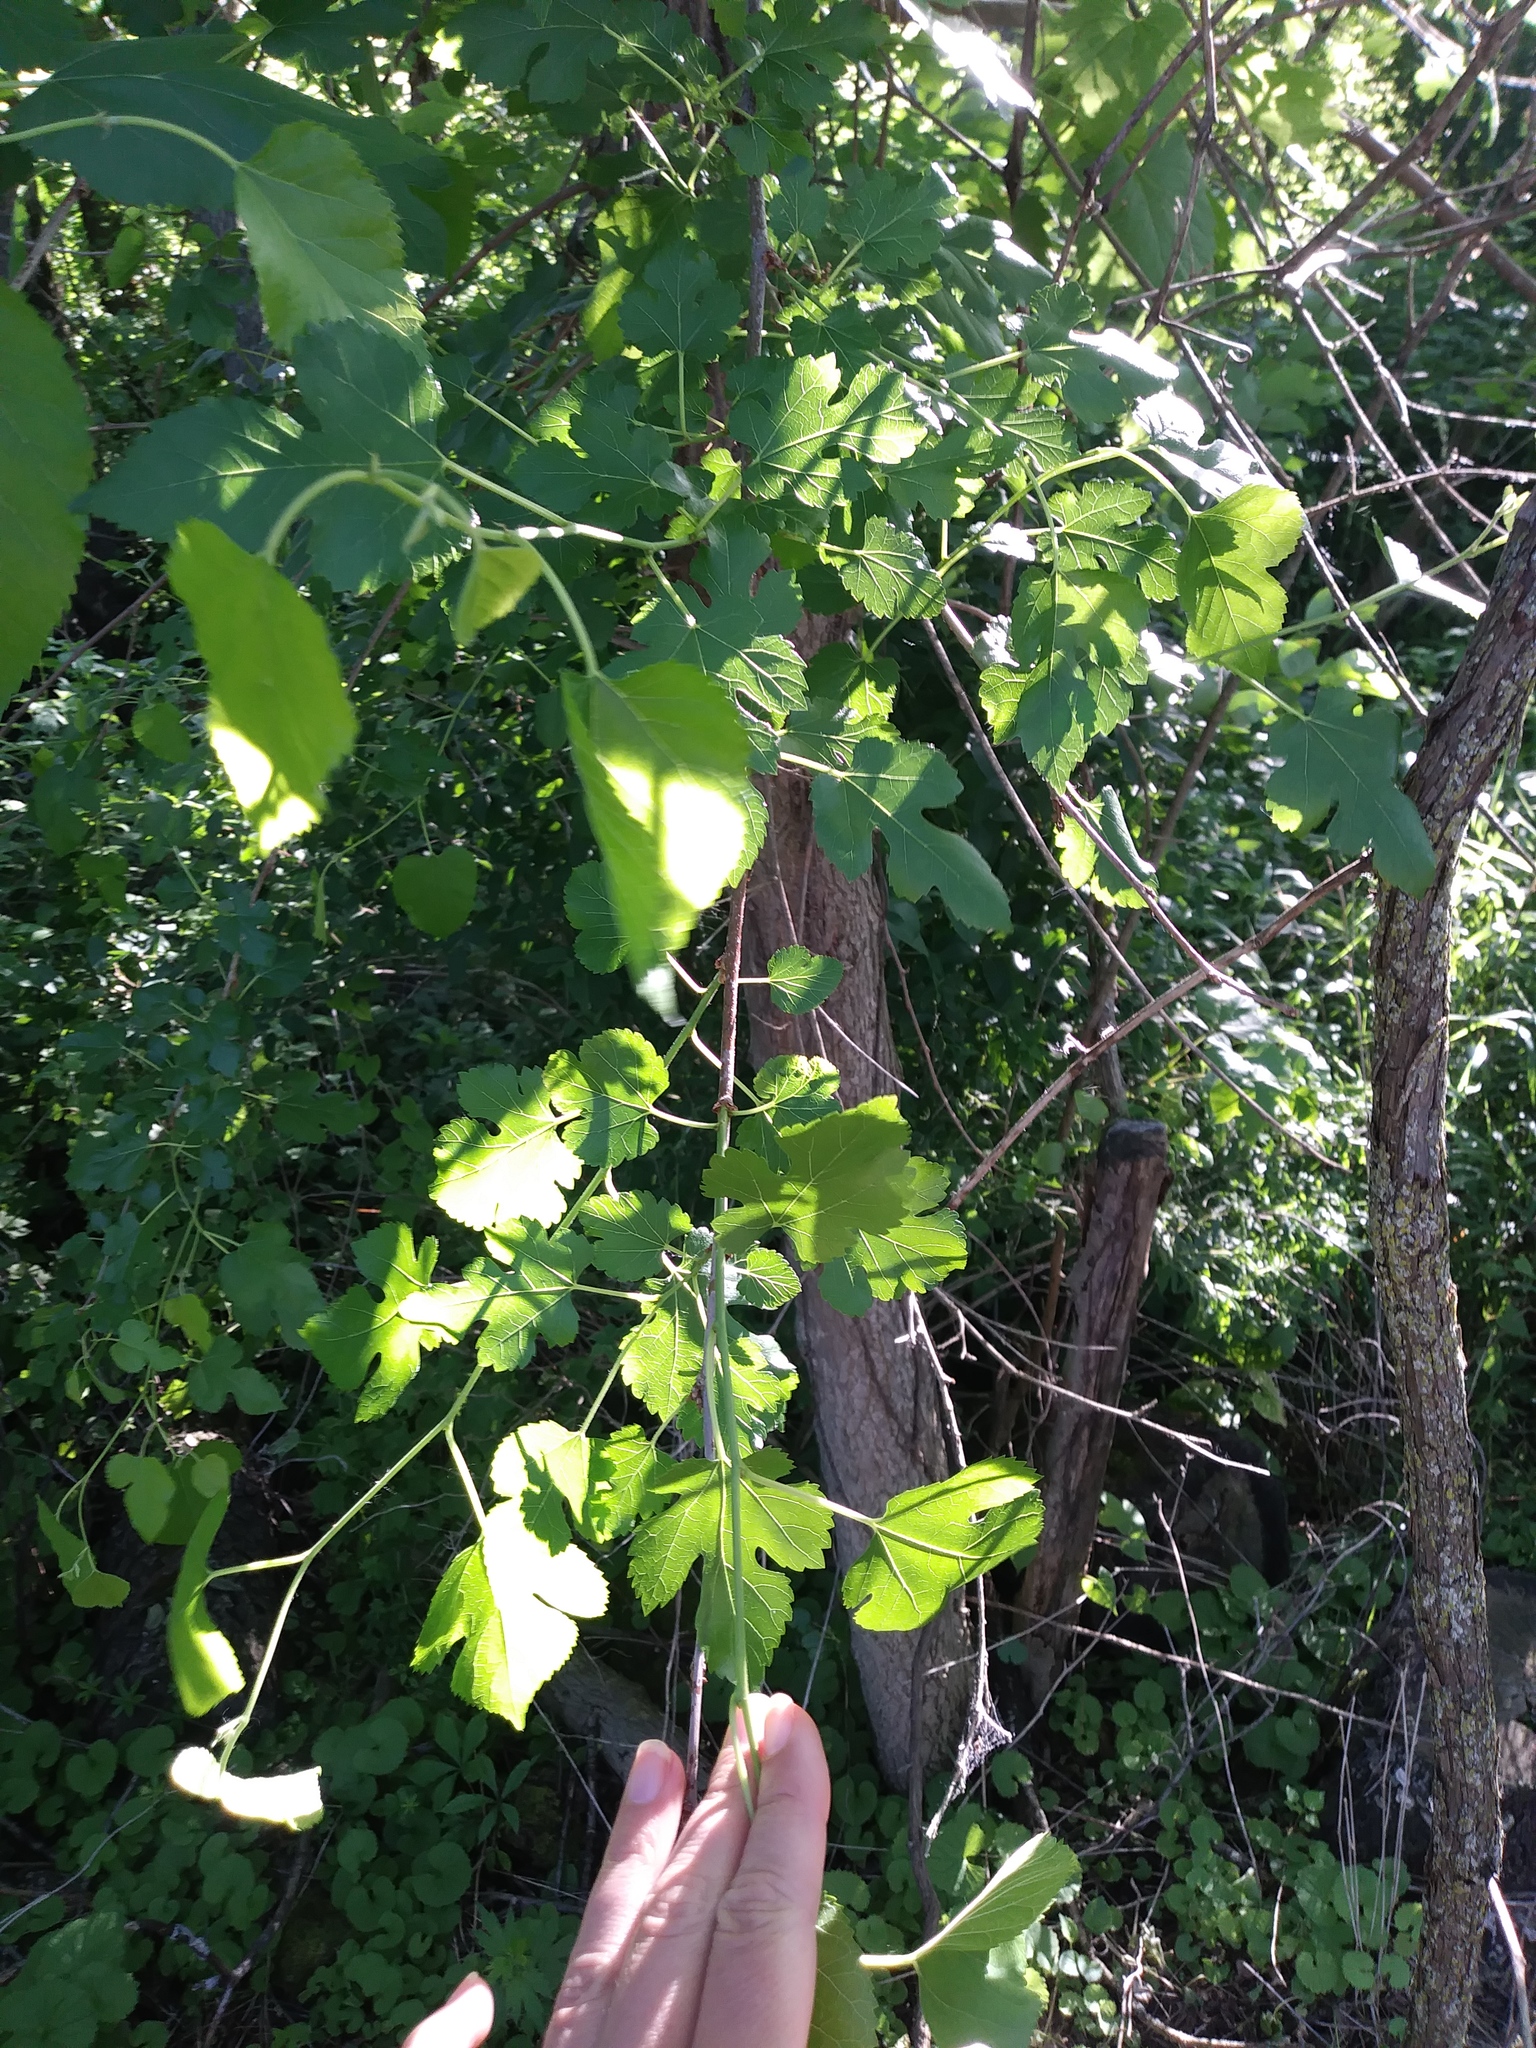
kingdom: Plantae
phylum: Tracheophyta
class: Magnoliopsida
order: Rosales
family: Moraceae
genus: Morus
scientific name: Morus alba
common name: White mulberry
